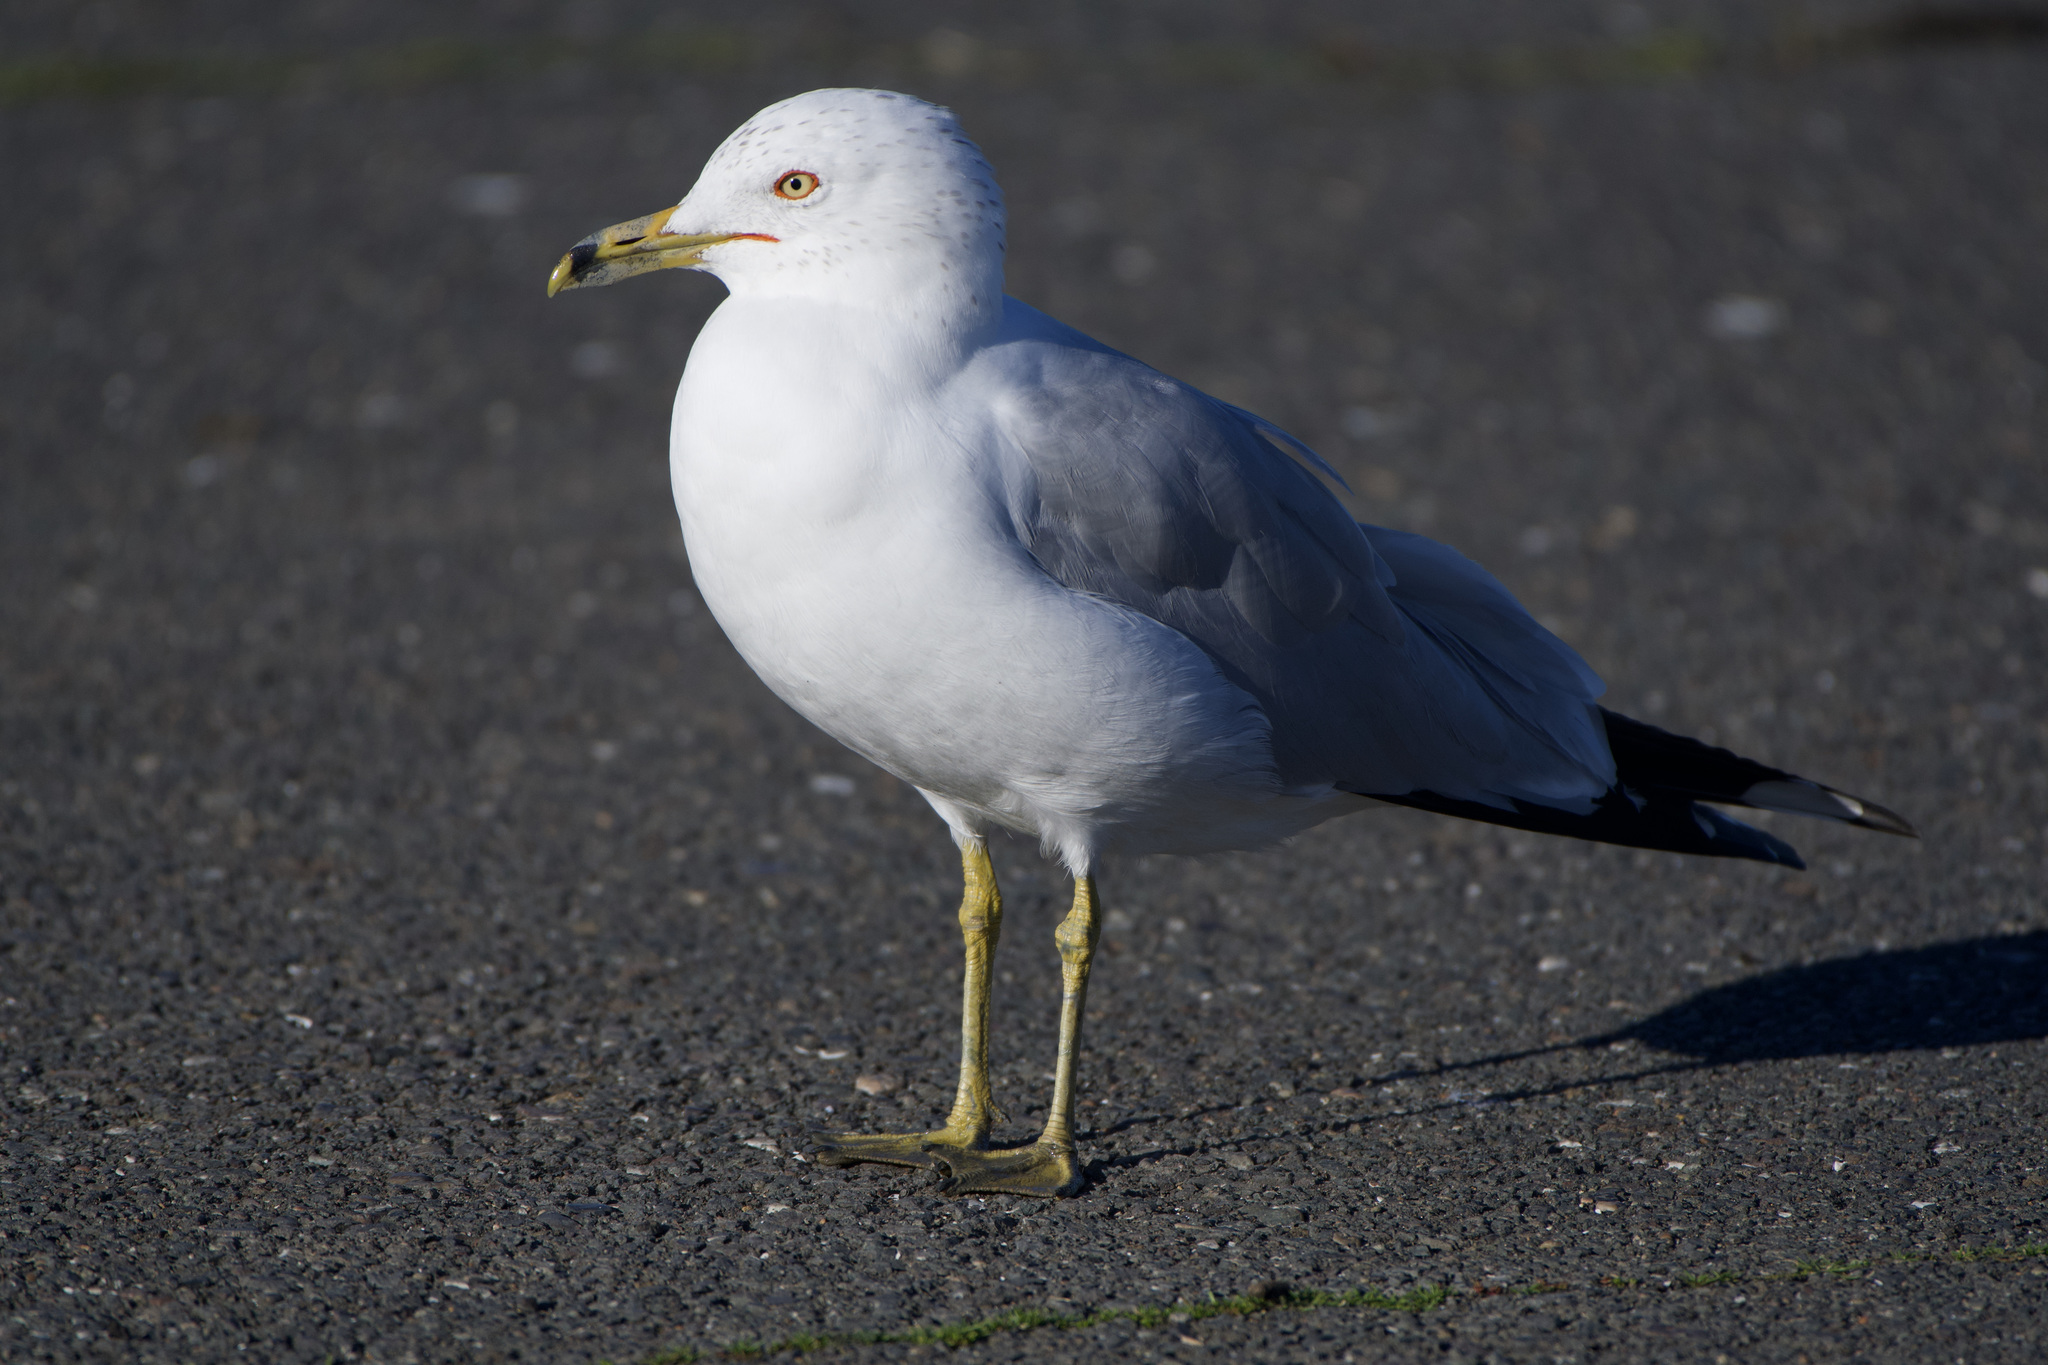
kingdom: Animalia
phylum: Chordata
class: Aves
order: Charadriiformes
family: Laridae
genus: Larus
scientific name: Larus delawarensis
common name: Ring-billed gull
